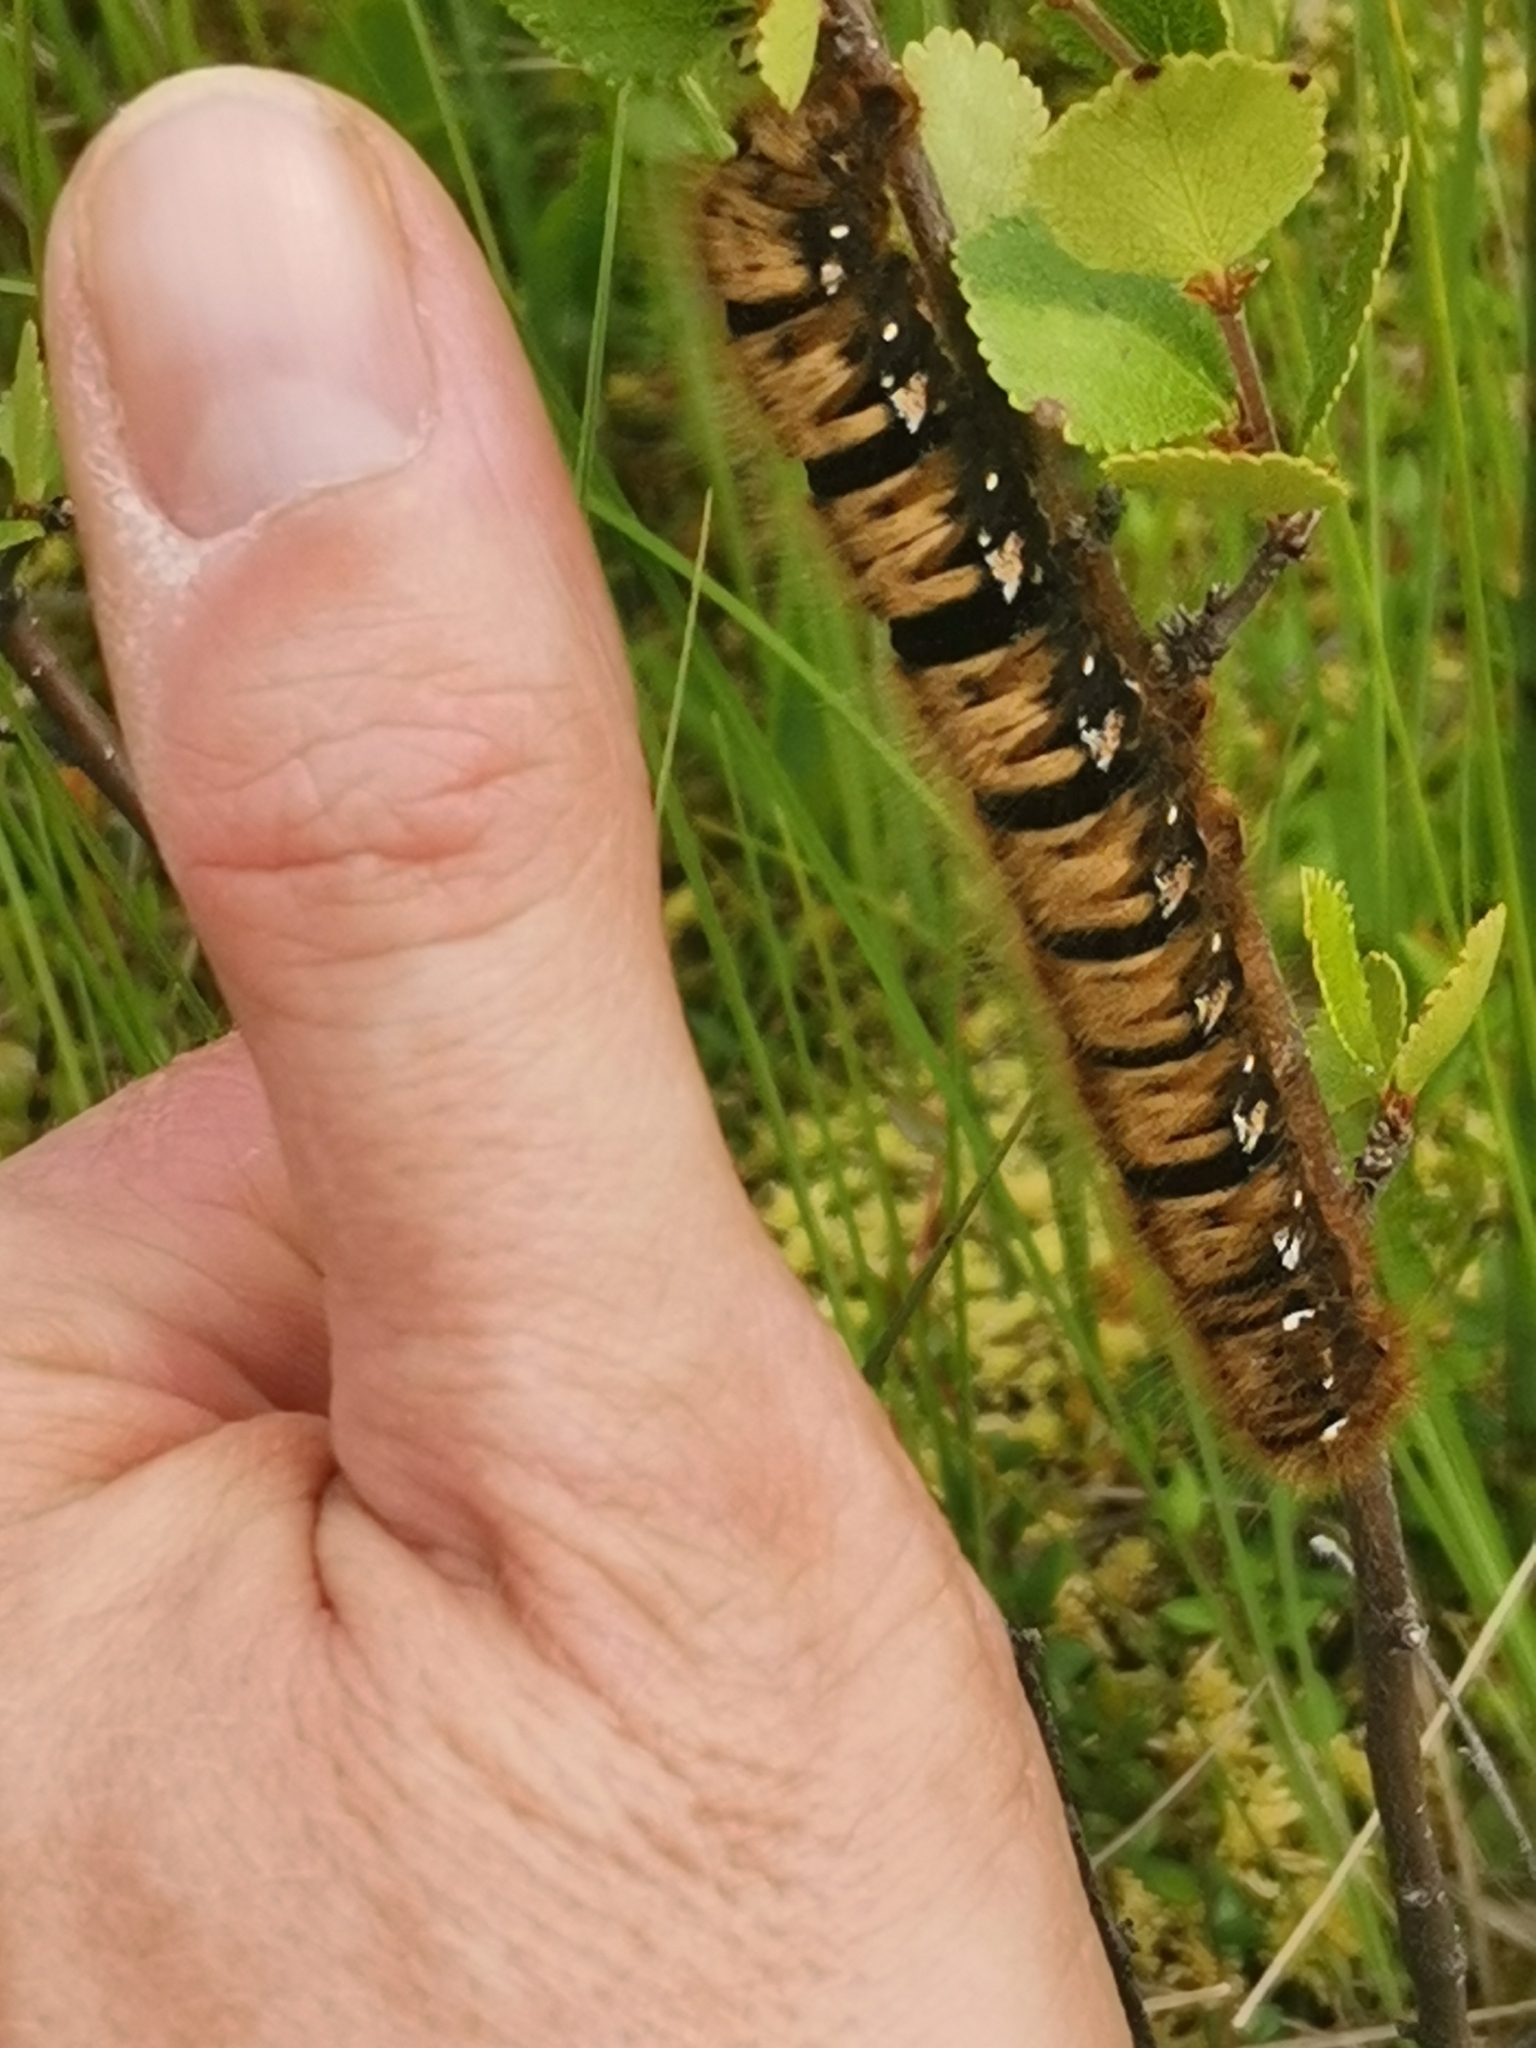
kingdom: Animalia
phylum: Arthropoda
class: Insecta
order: Lepidoptera
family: Lasiocampidae
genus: Lasiocampa
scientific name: Lasiocampa quercus
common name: Oak eggar
